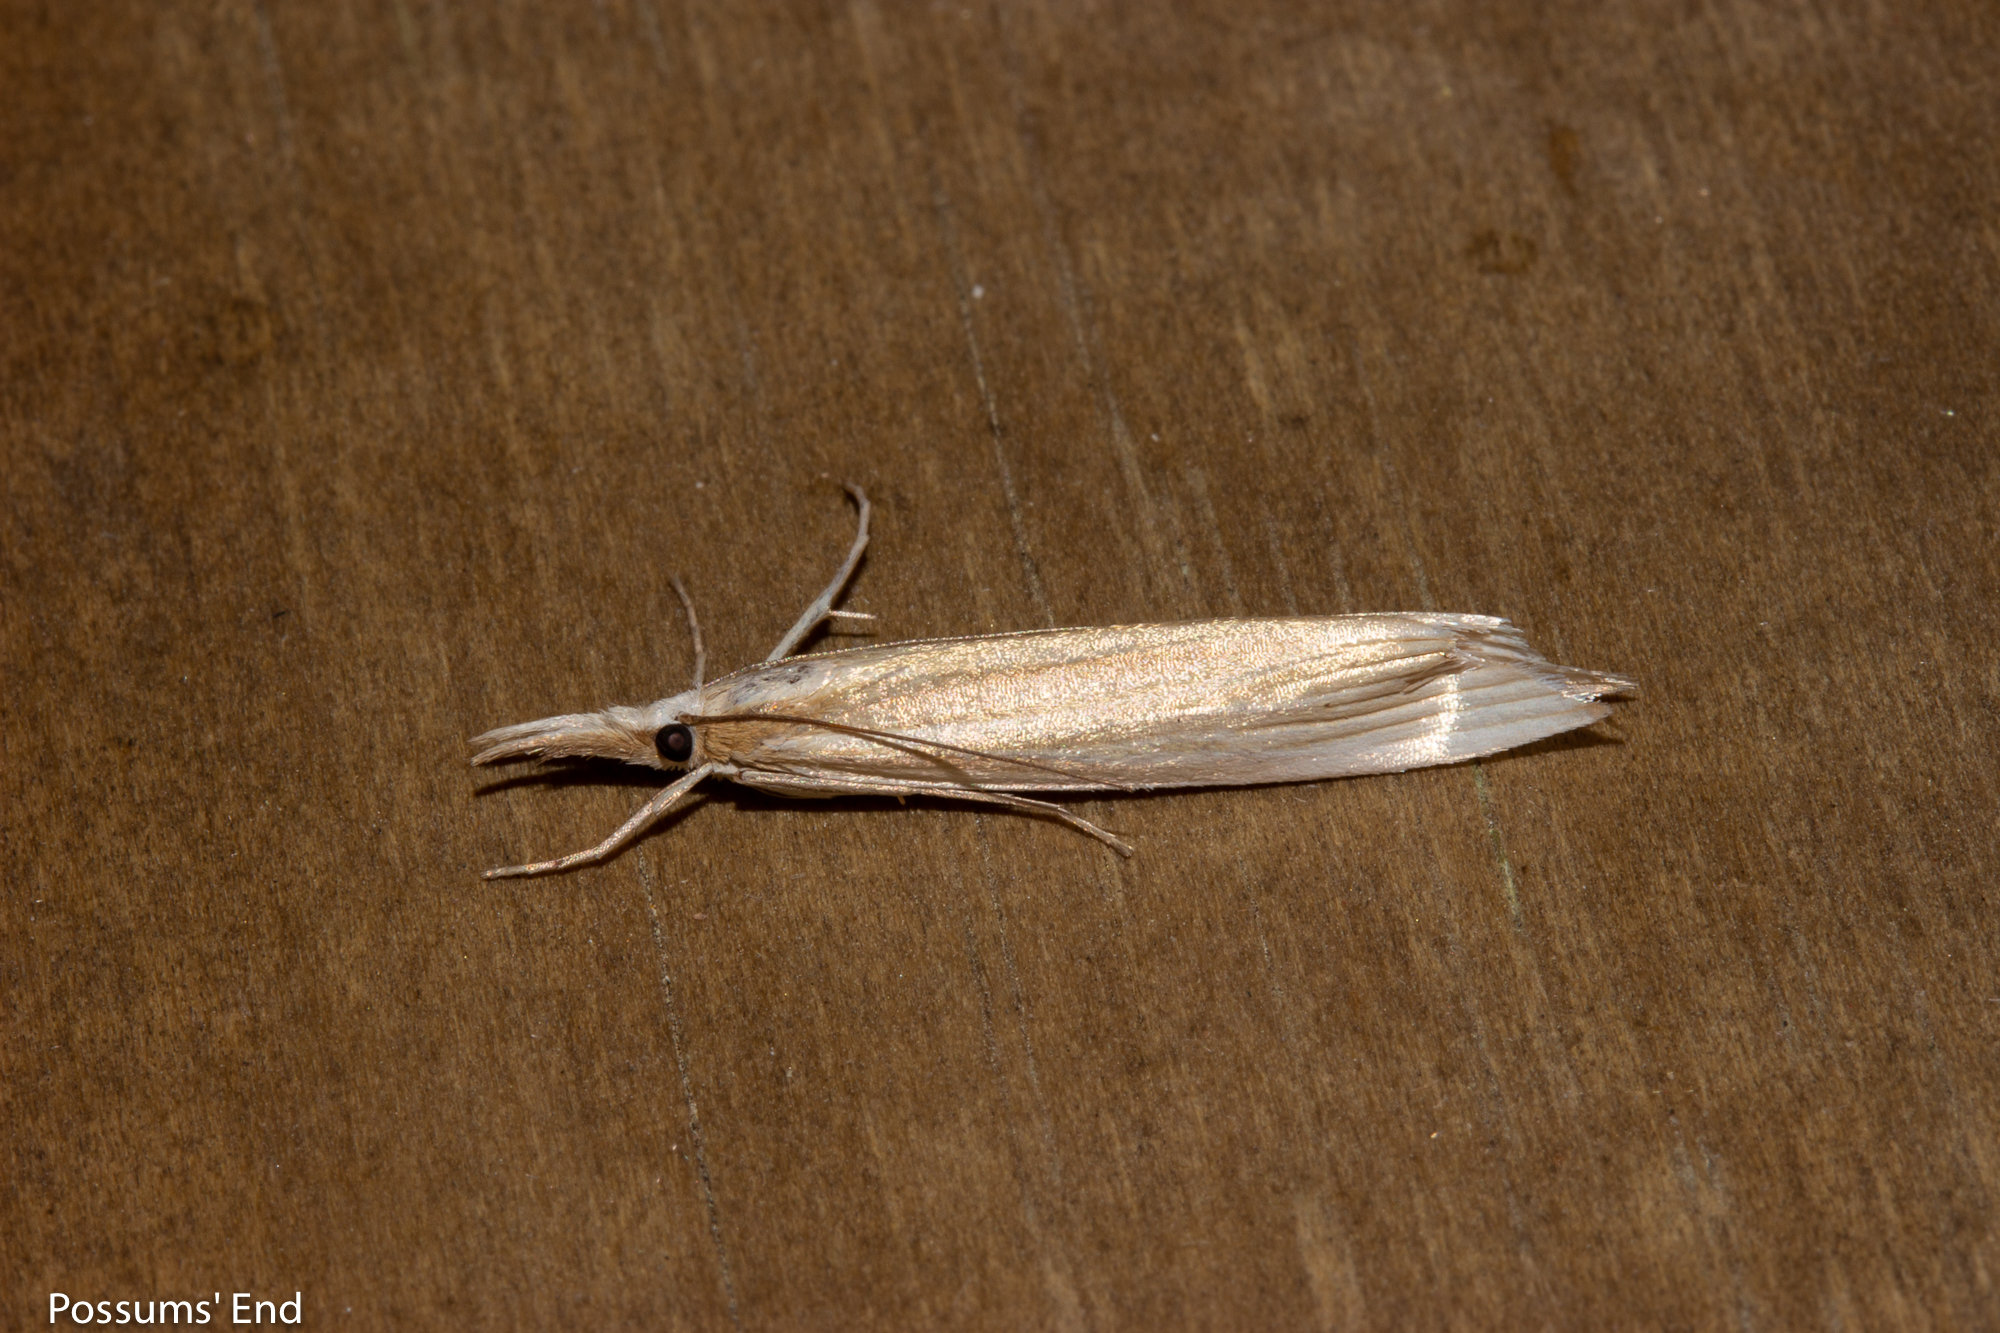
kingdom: Animalia
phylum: Arthropoda
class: Insecta
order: Lepidoptera
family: Crambidae
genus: Orocrambus
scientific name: Orocrambus angustipennis
